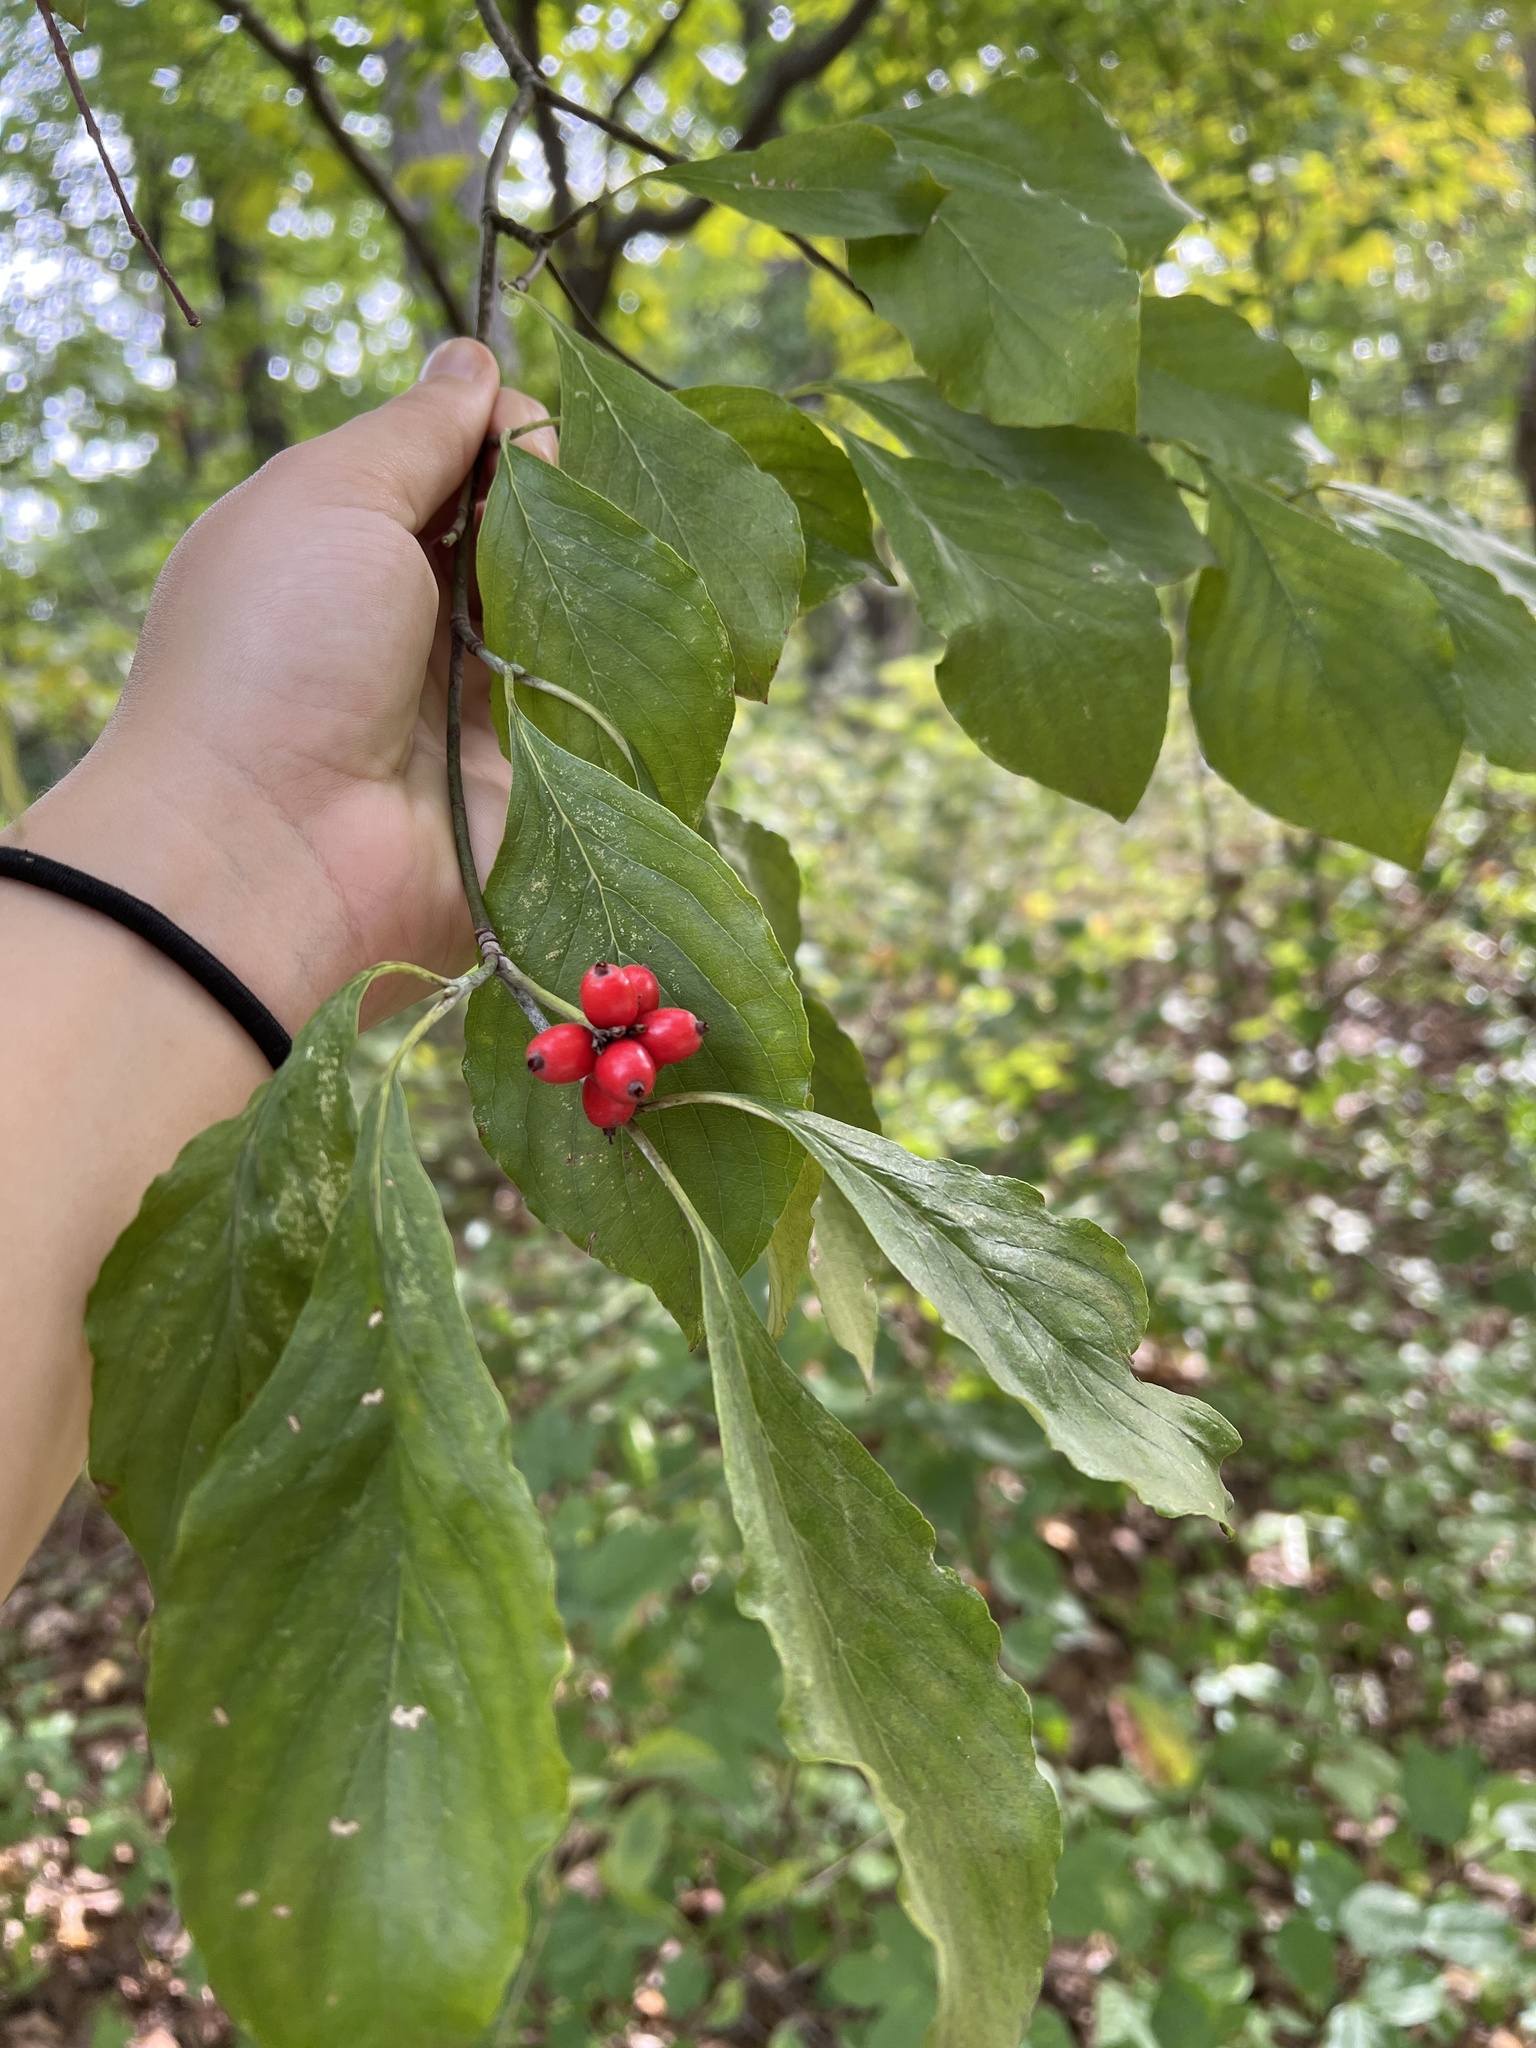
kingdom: Plantae
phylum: Tracheophyta
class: Magnoliopsida
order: Cornales
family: Cornaceae
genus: Cornus
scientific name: Cornus florida
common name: Flowering dogwood
